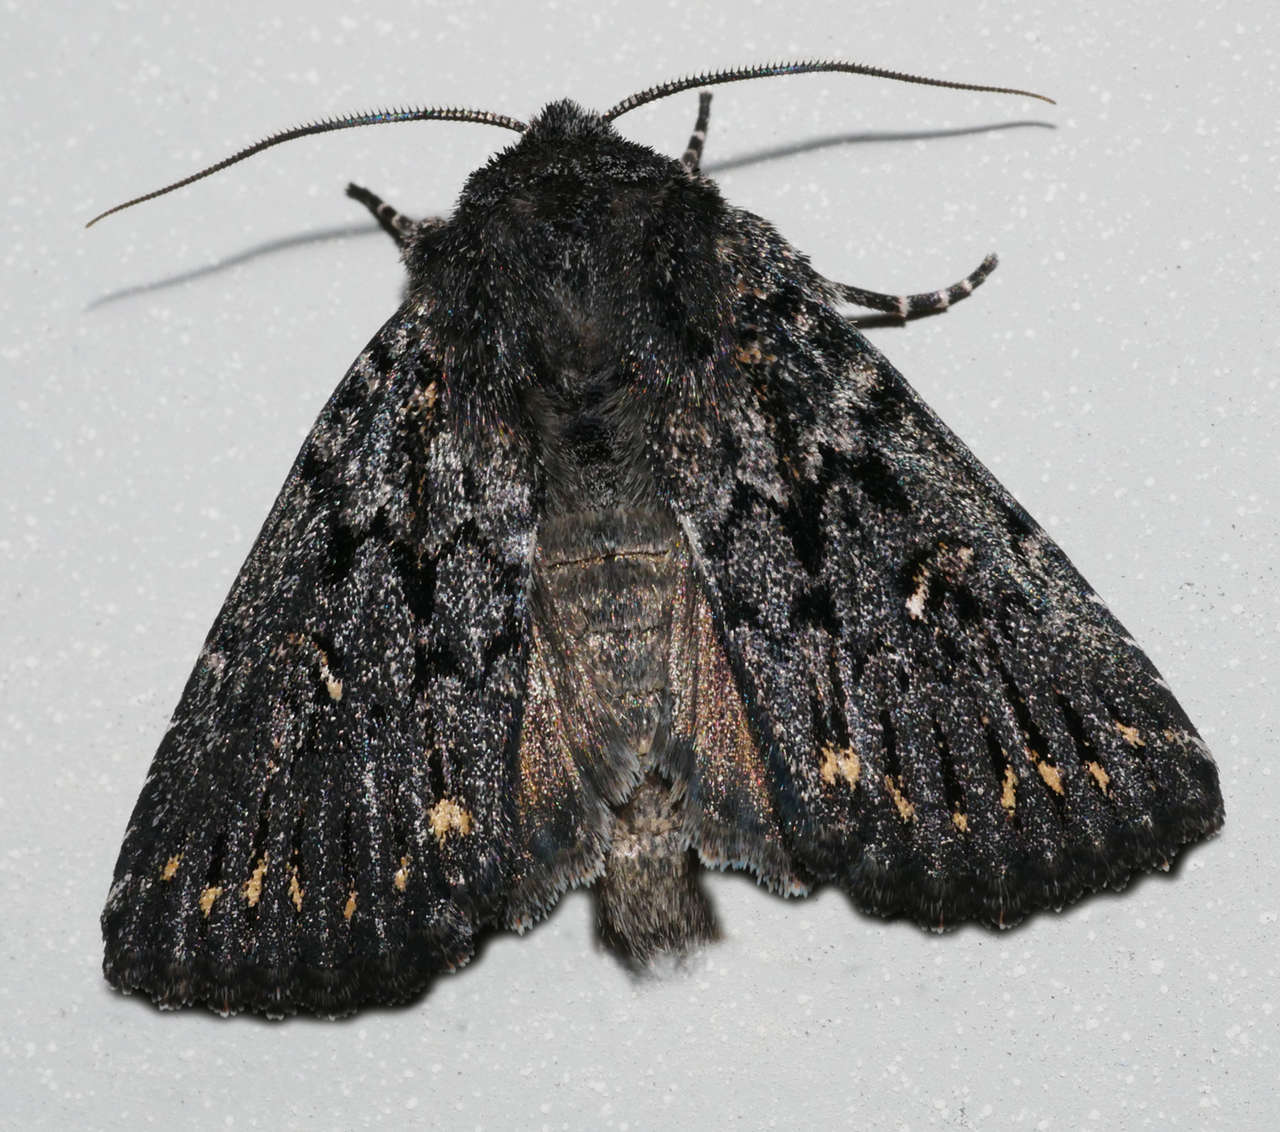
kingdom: Animalia
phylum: Arthropoda
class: Insecta
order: Lepidoptera
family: Noctuidae
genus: Dasygaster
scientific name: Dasygaster epundoides
